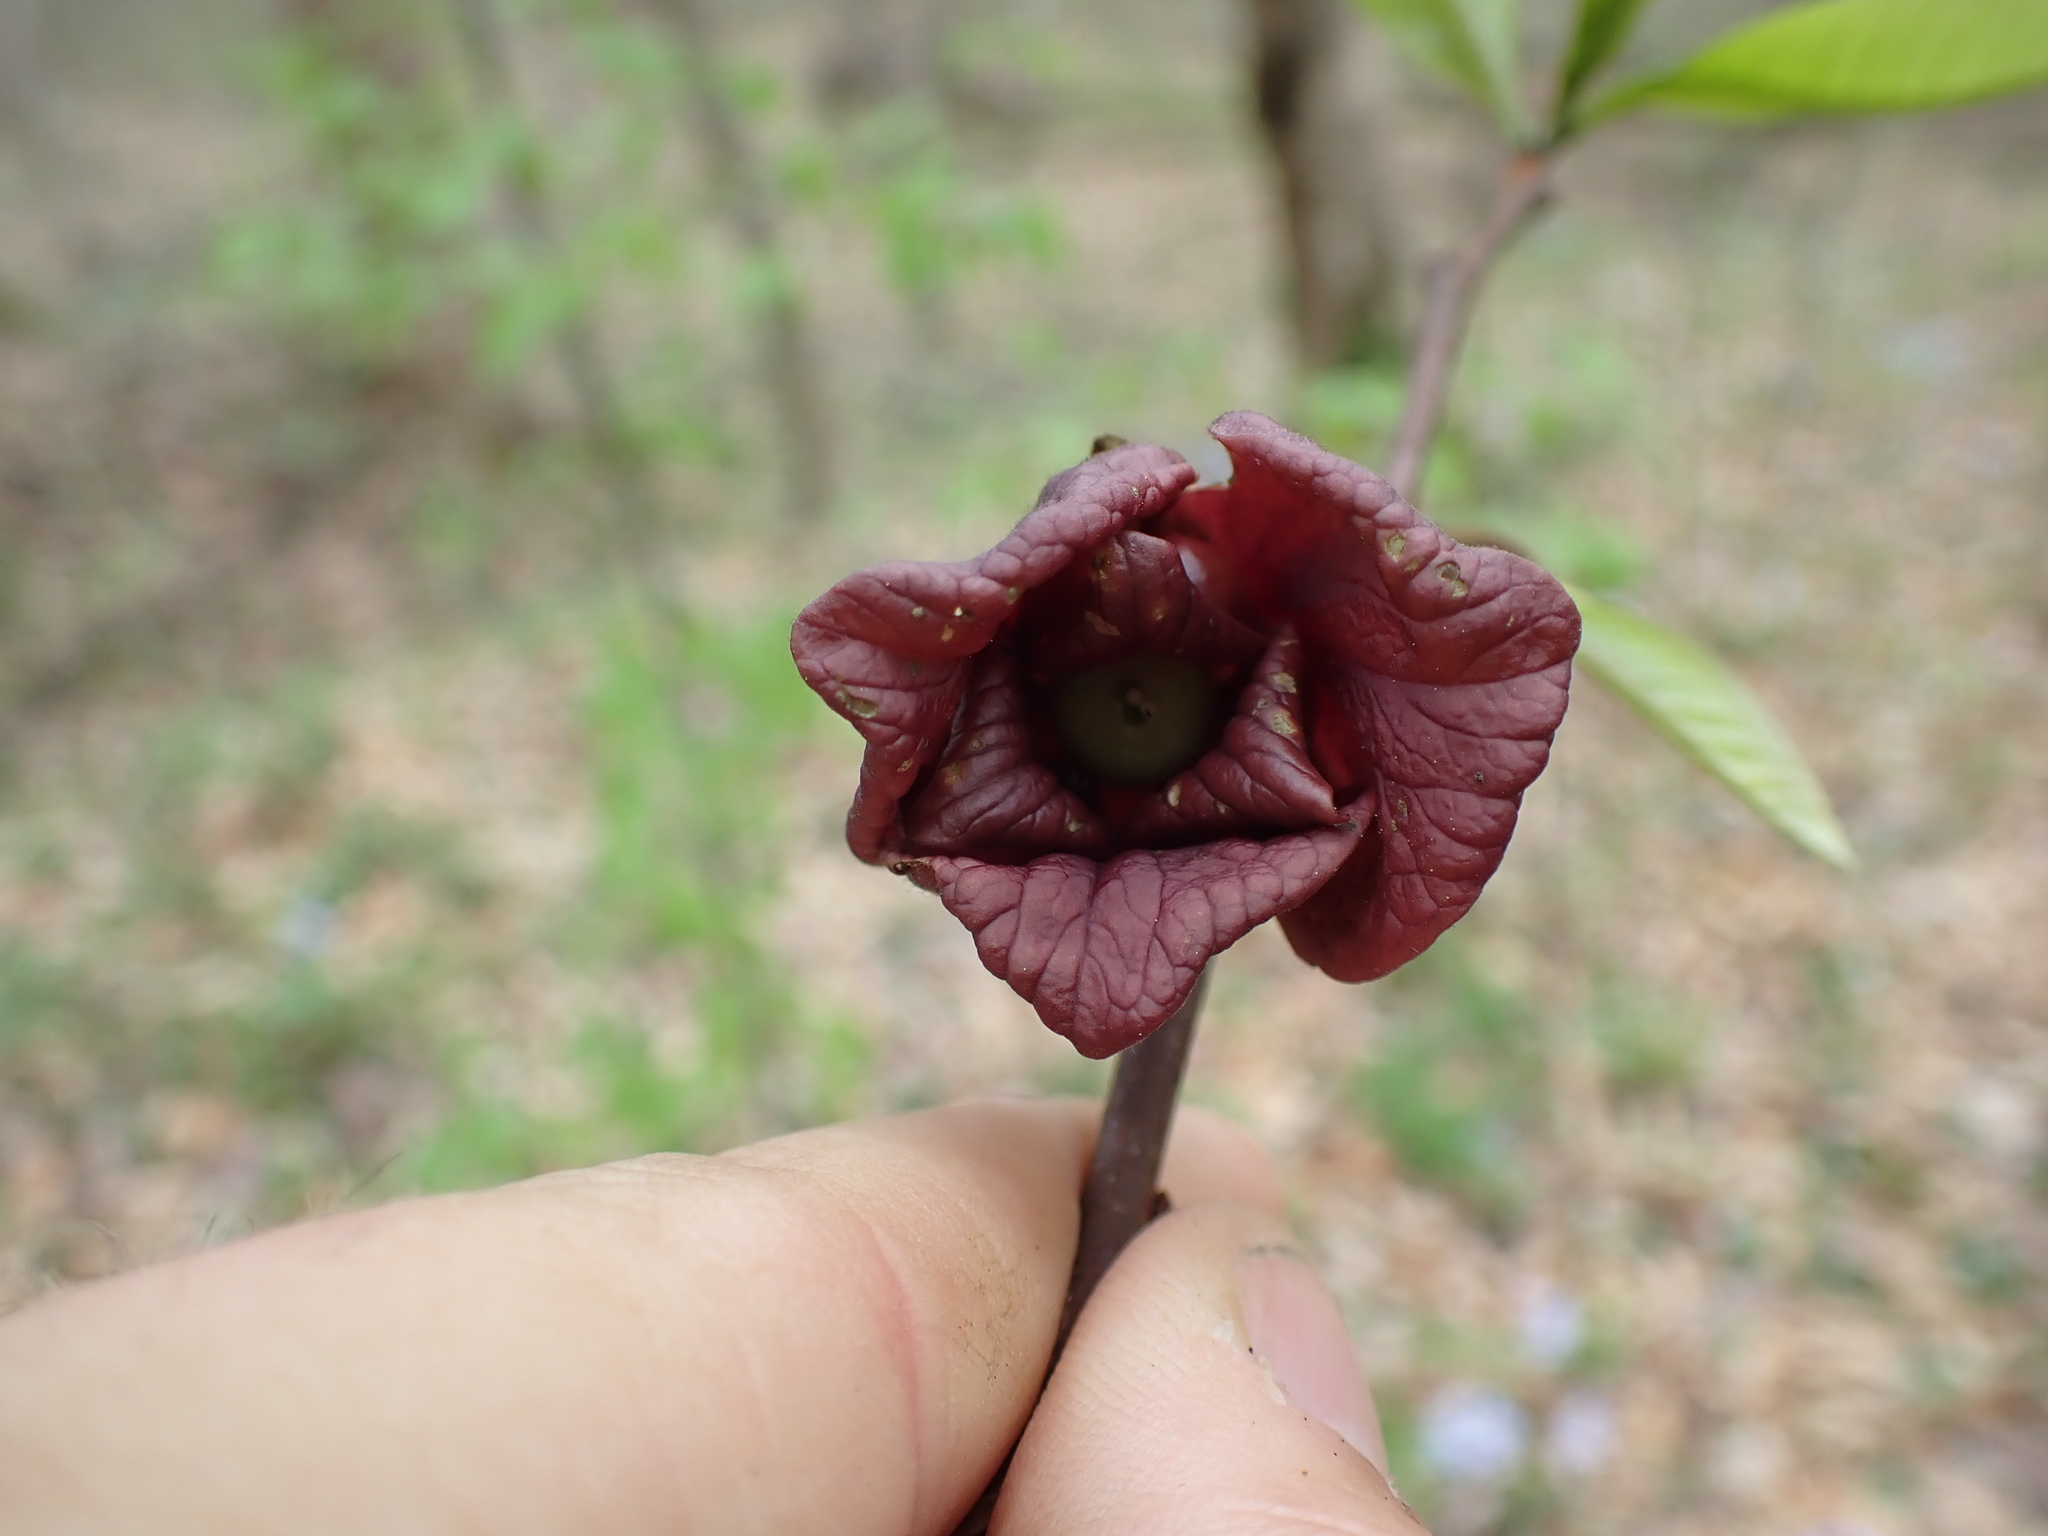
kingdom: Plantae
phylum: Tracheophyta
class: Magnoliopsida
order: Magnoliales
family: Annonaceae
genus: Asimina
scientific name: Asimina triloba
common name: Dog-banana
